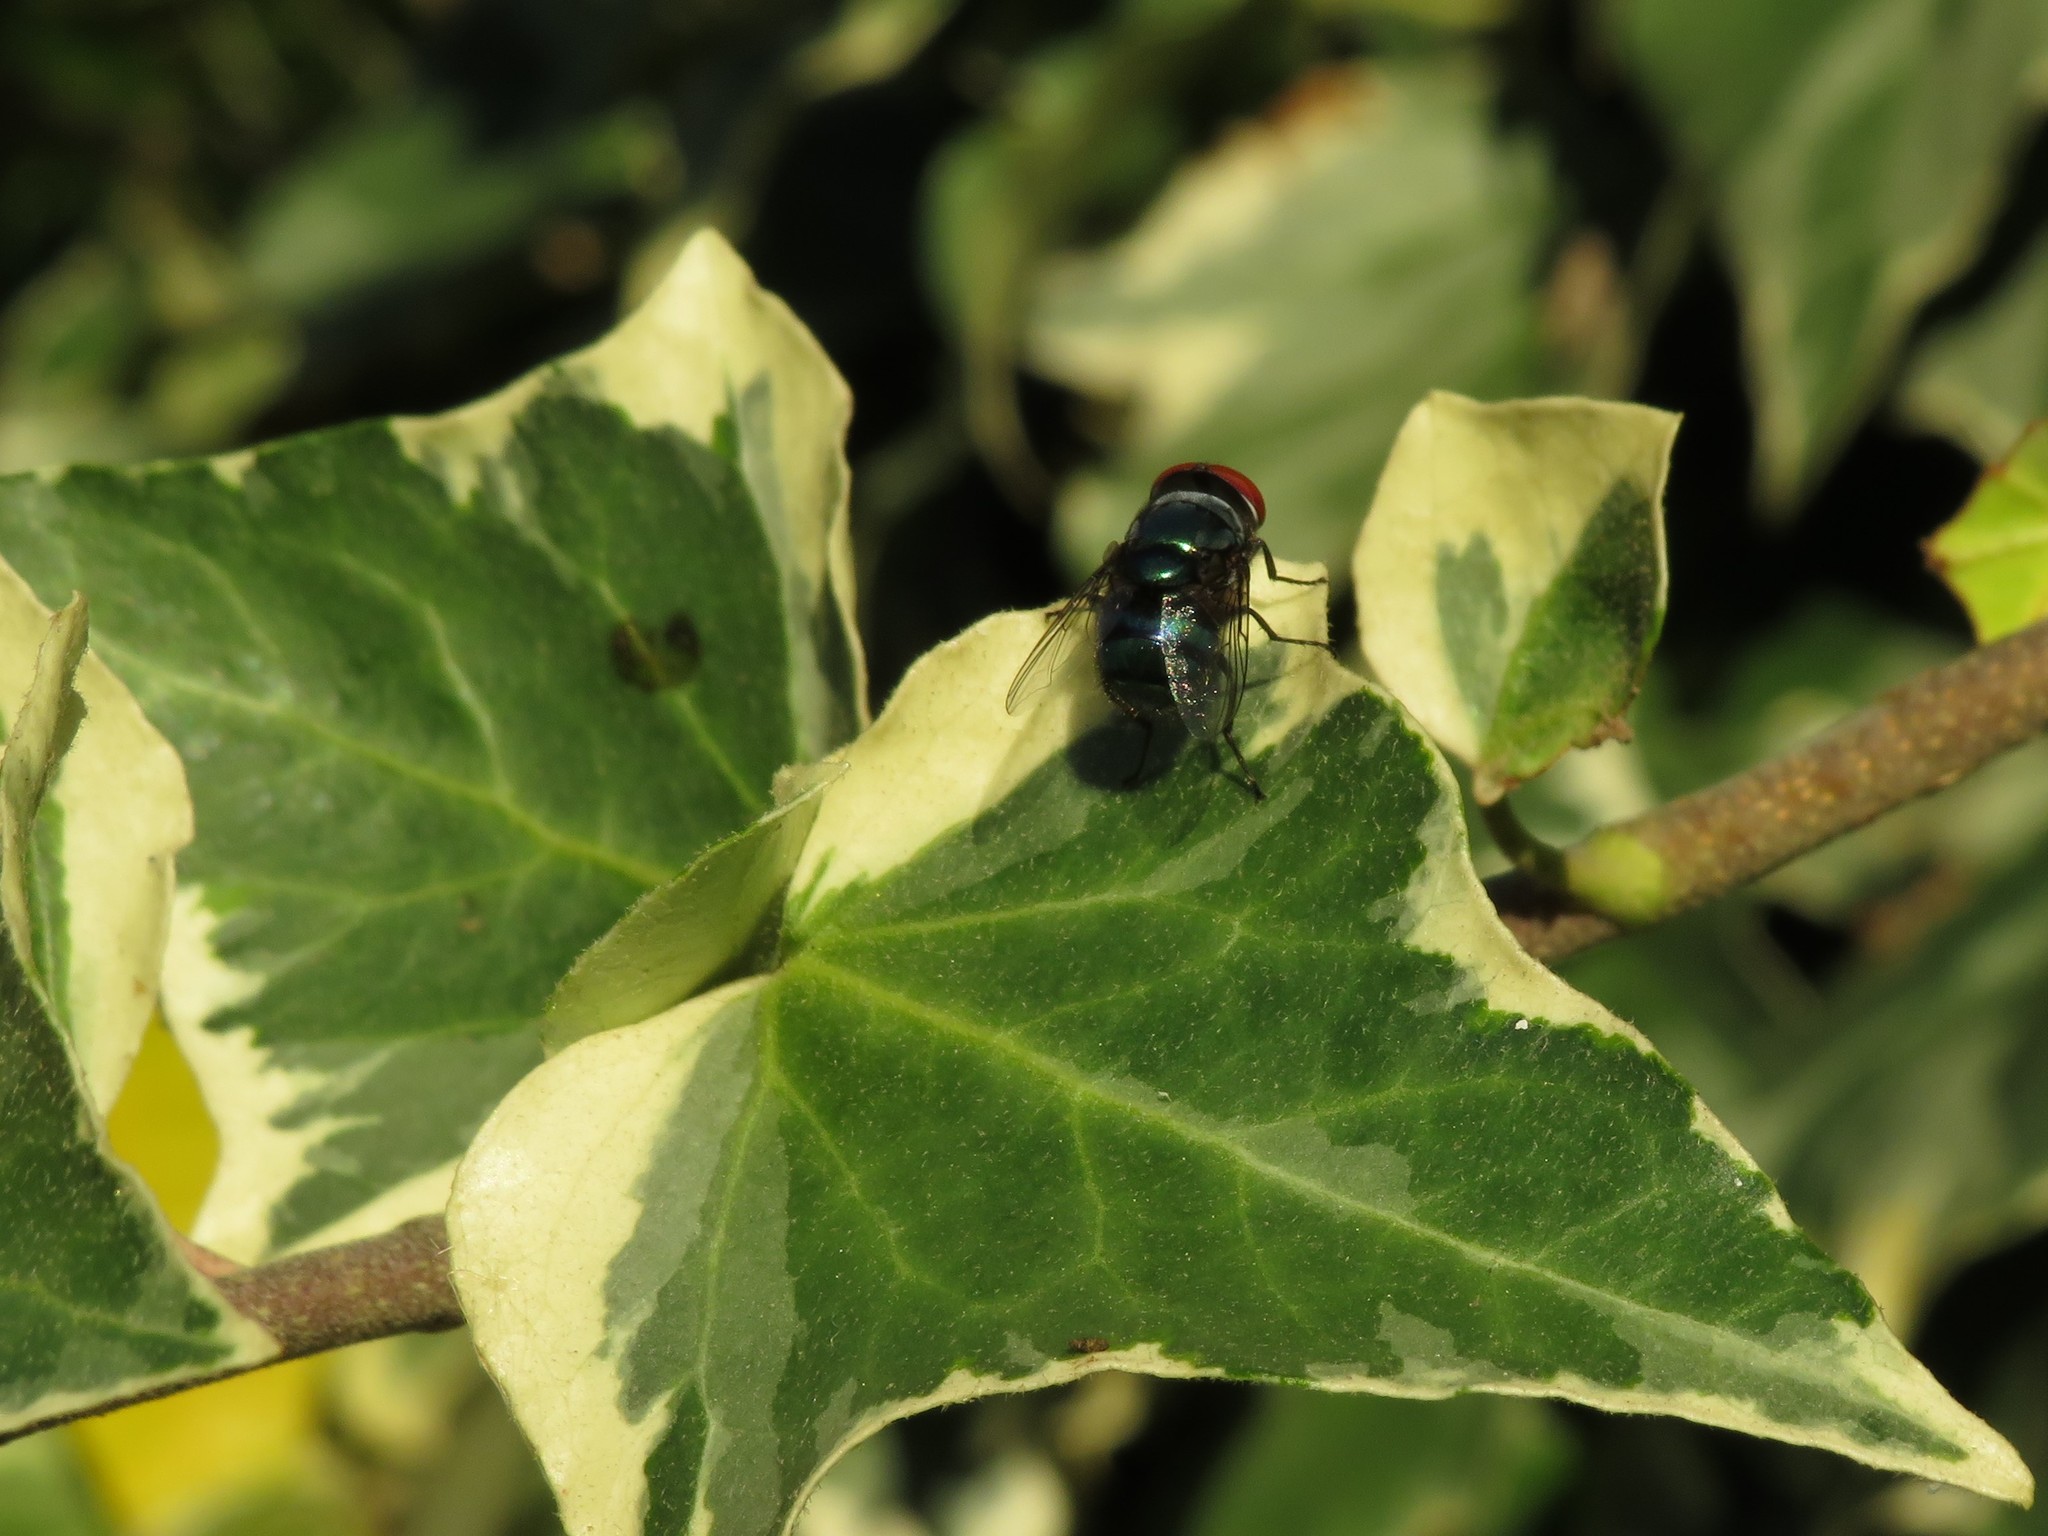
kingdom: Animalia
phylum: Arthropoda
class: Insecta
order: Diptera
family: Calliphoridae
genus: Chrysomya
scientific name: Chrysomya megacephala
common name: Blow fly
